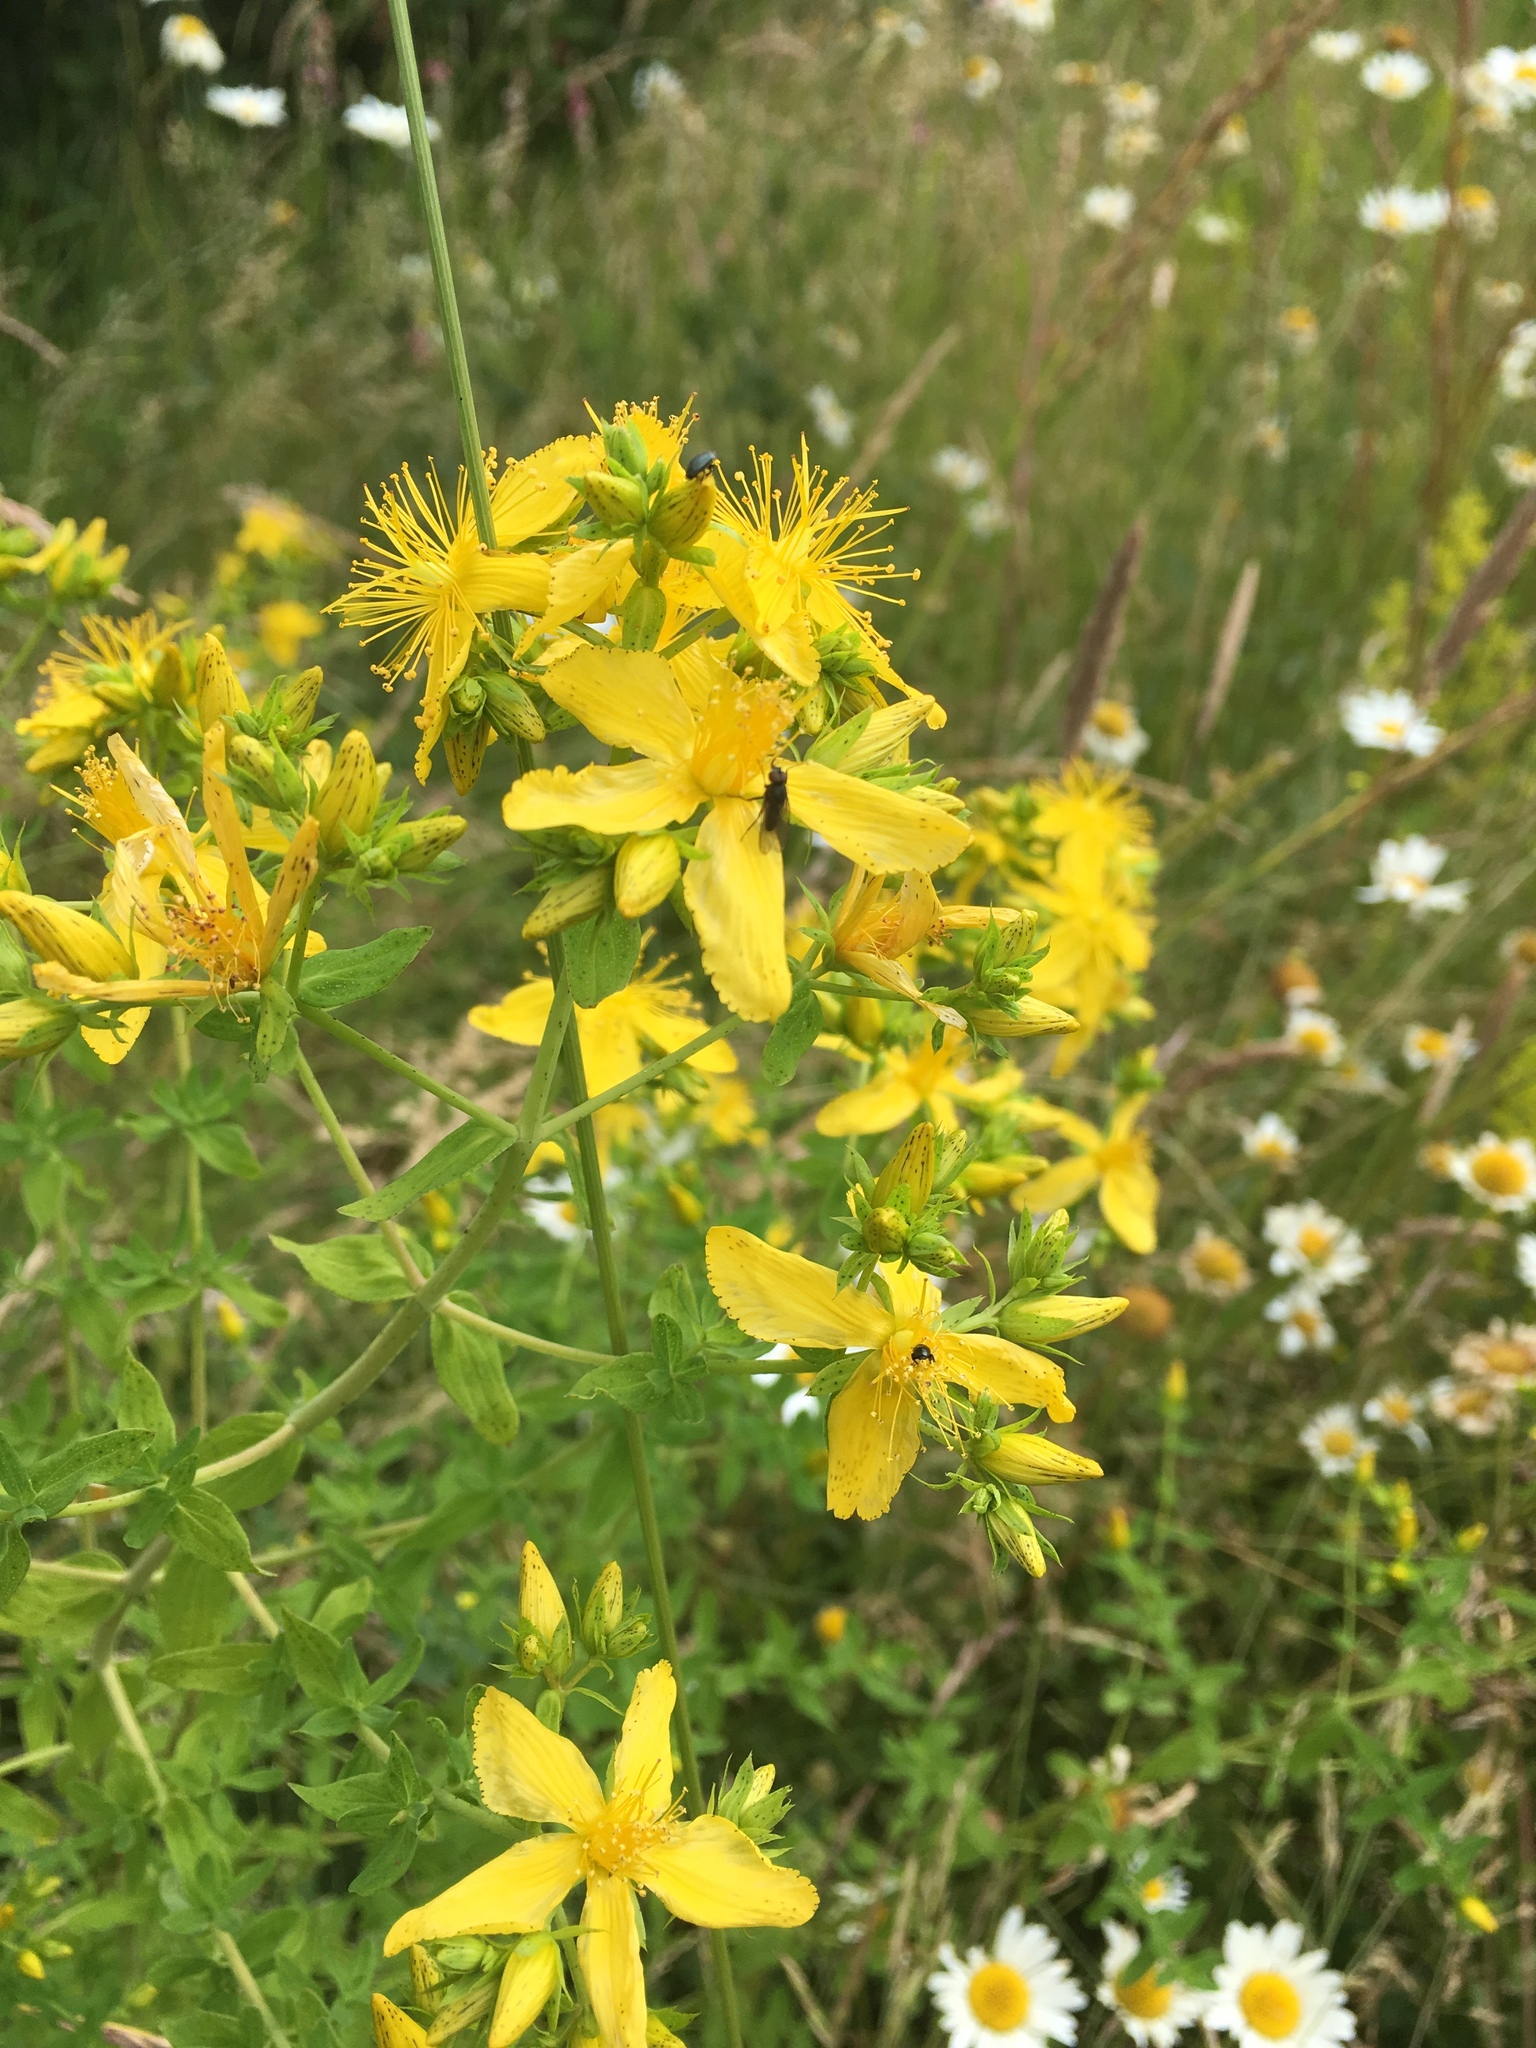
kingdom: Plantae
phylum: Tracheophyta
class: Magnoliopsida
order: Malpighiales
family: Hypericaceae
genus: Hypericum
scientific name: Hypericum perforatum
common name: Common st. johnswort
